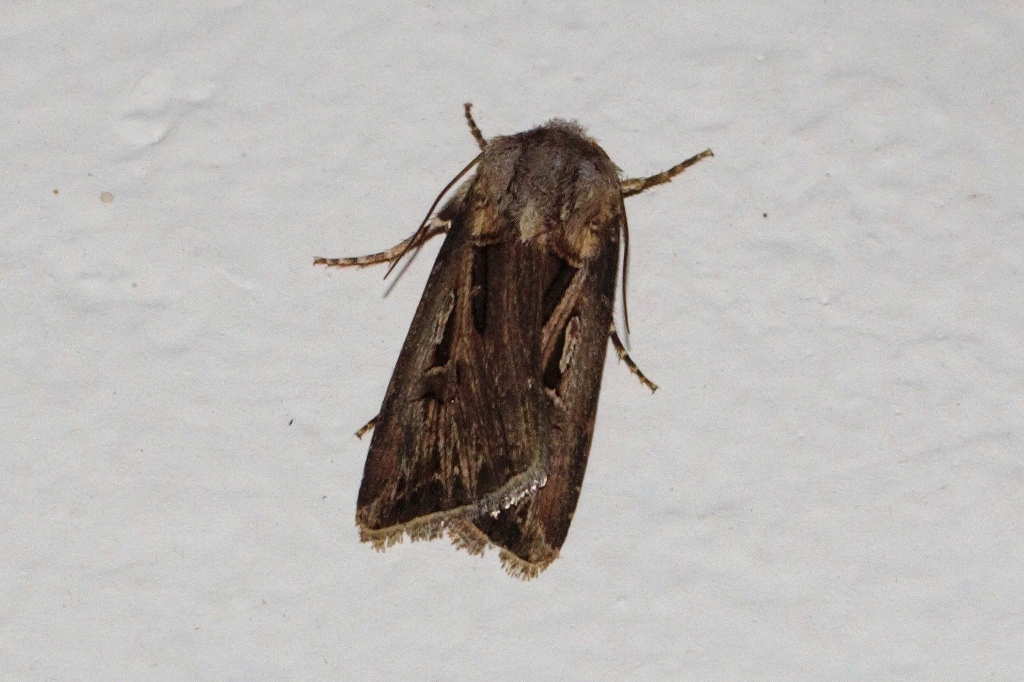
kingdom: Animalia
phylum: Arthropoda
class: Insecta
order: Lepidoptera
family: Noctuidae
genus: Agrotis
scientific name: Agrotis
